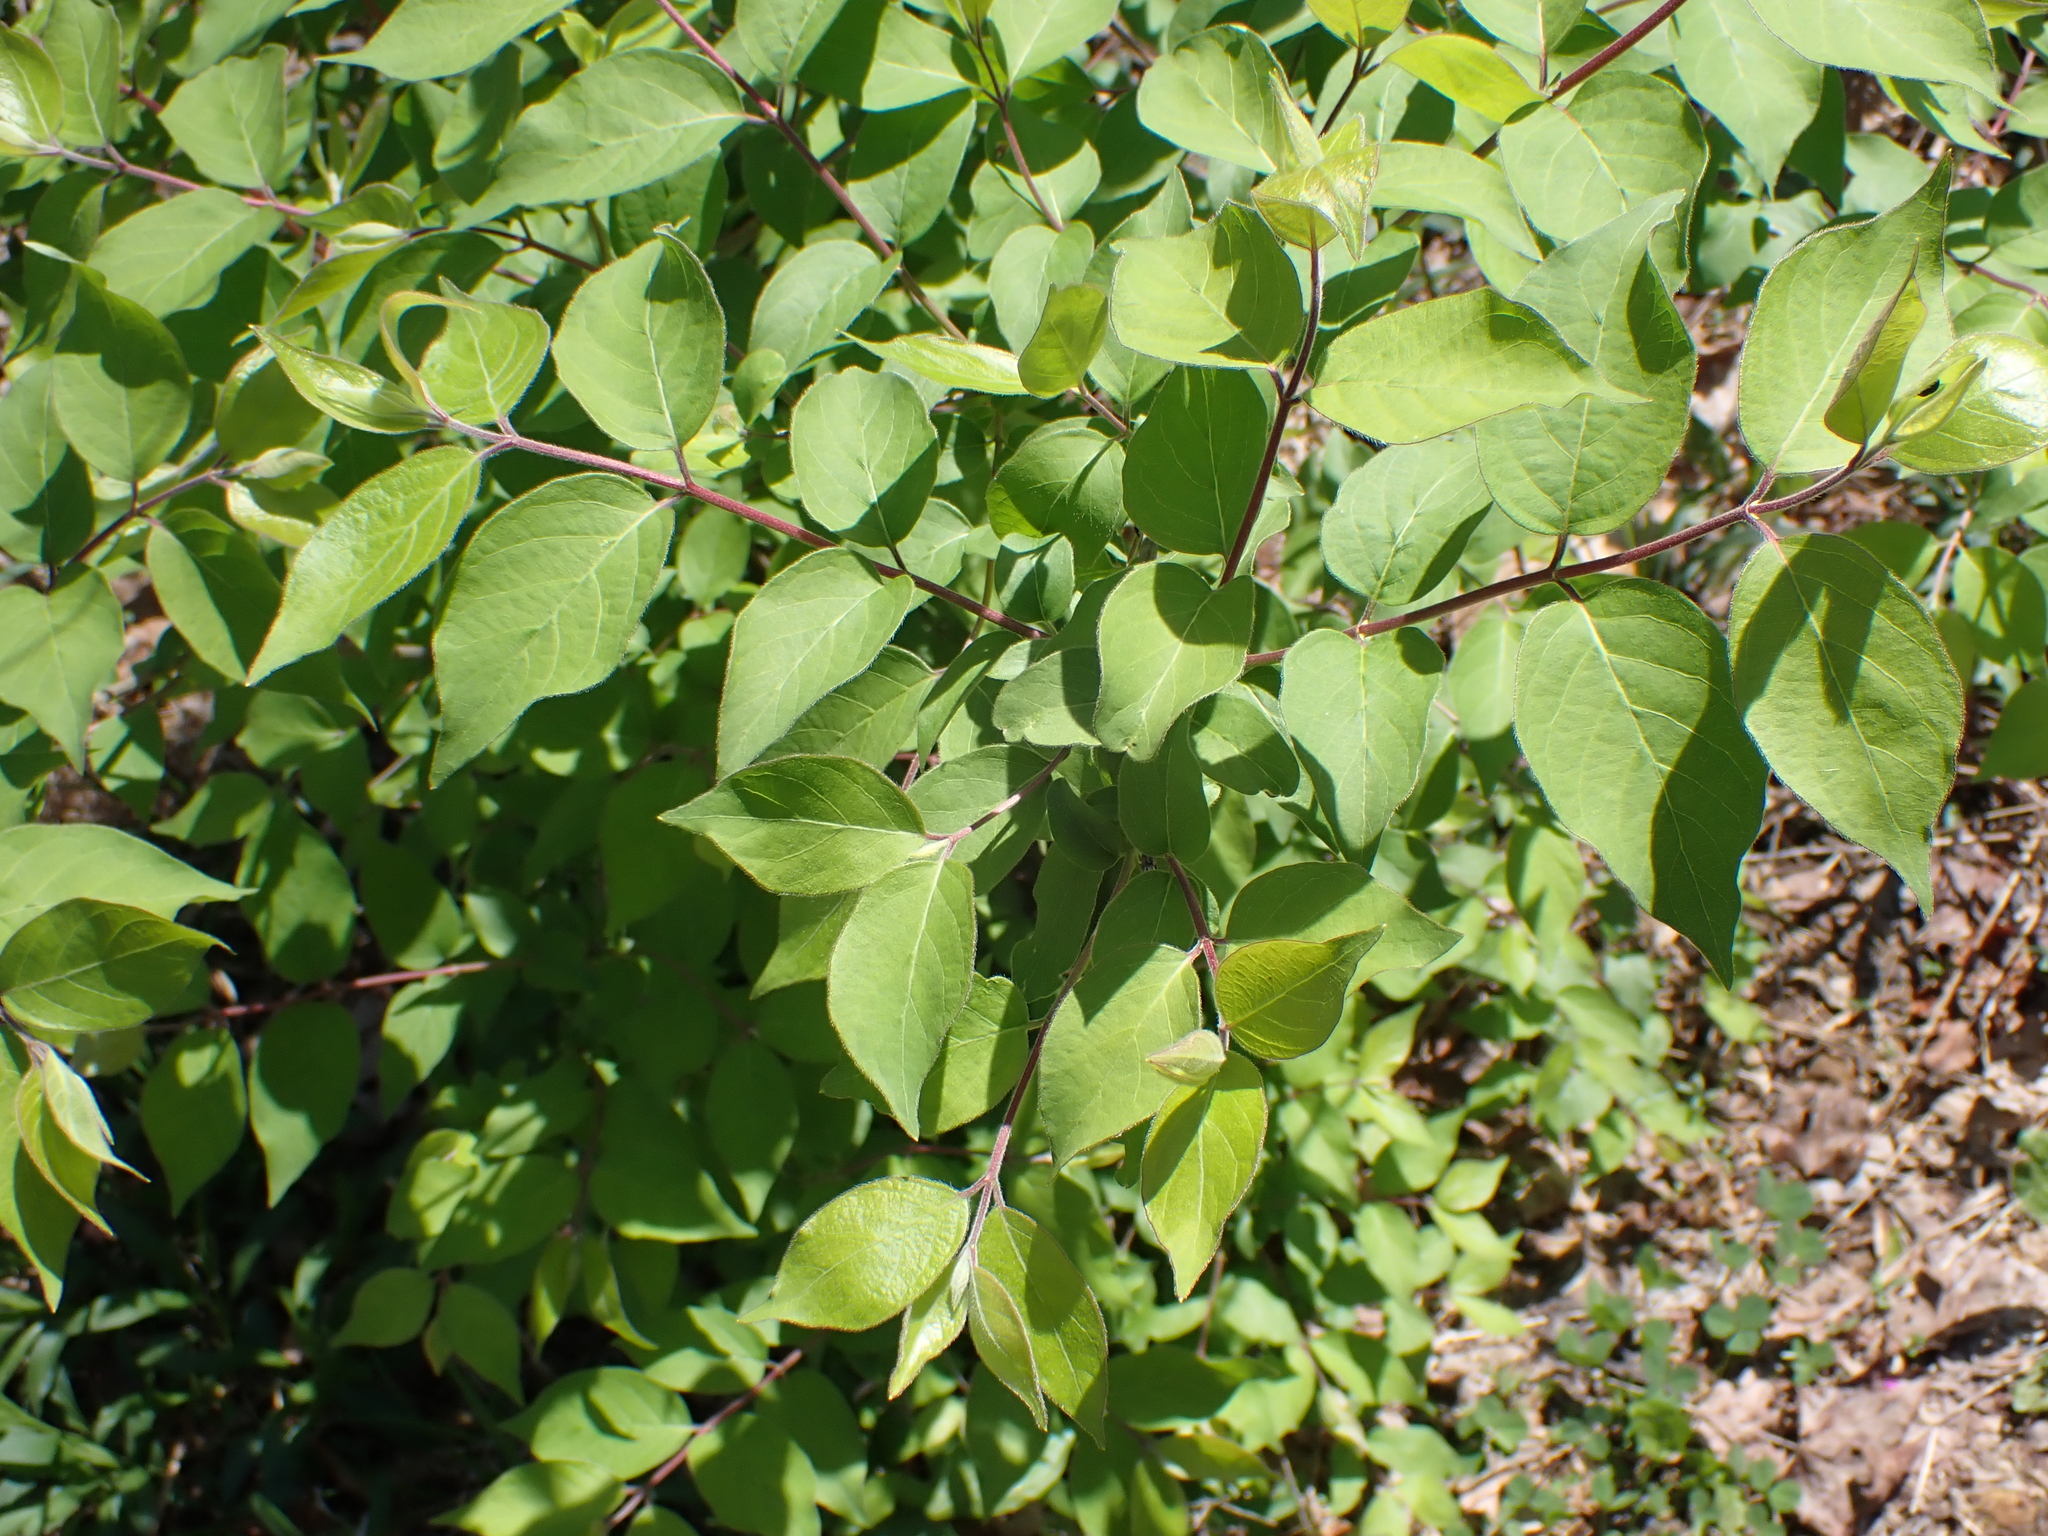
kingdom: Plantae
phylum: Tracheophyta
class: Magnoliopsida
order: Dipsacales
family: Caprifoliaceae
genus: Lonicera
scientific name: Lonicera maackii
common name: Amur honeysuckle
